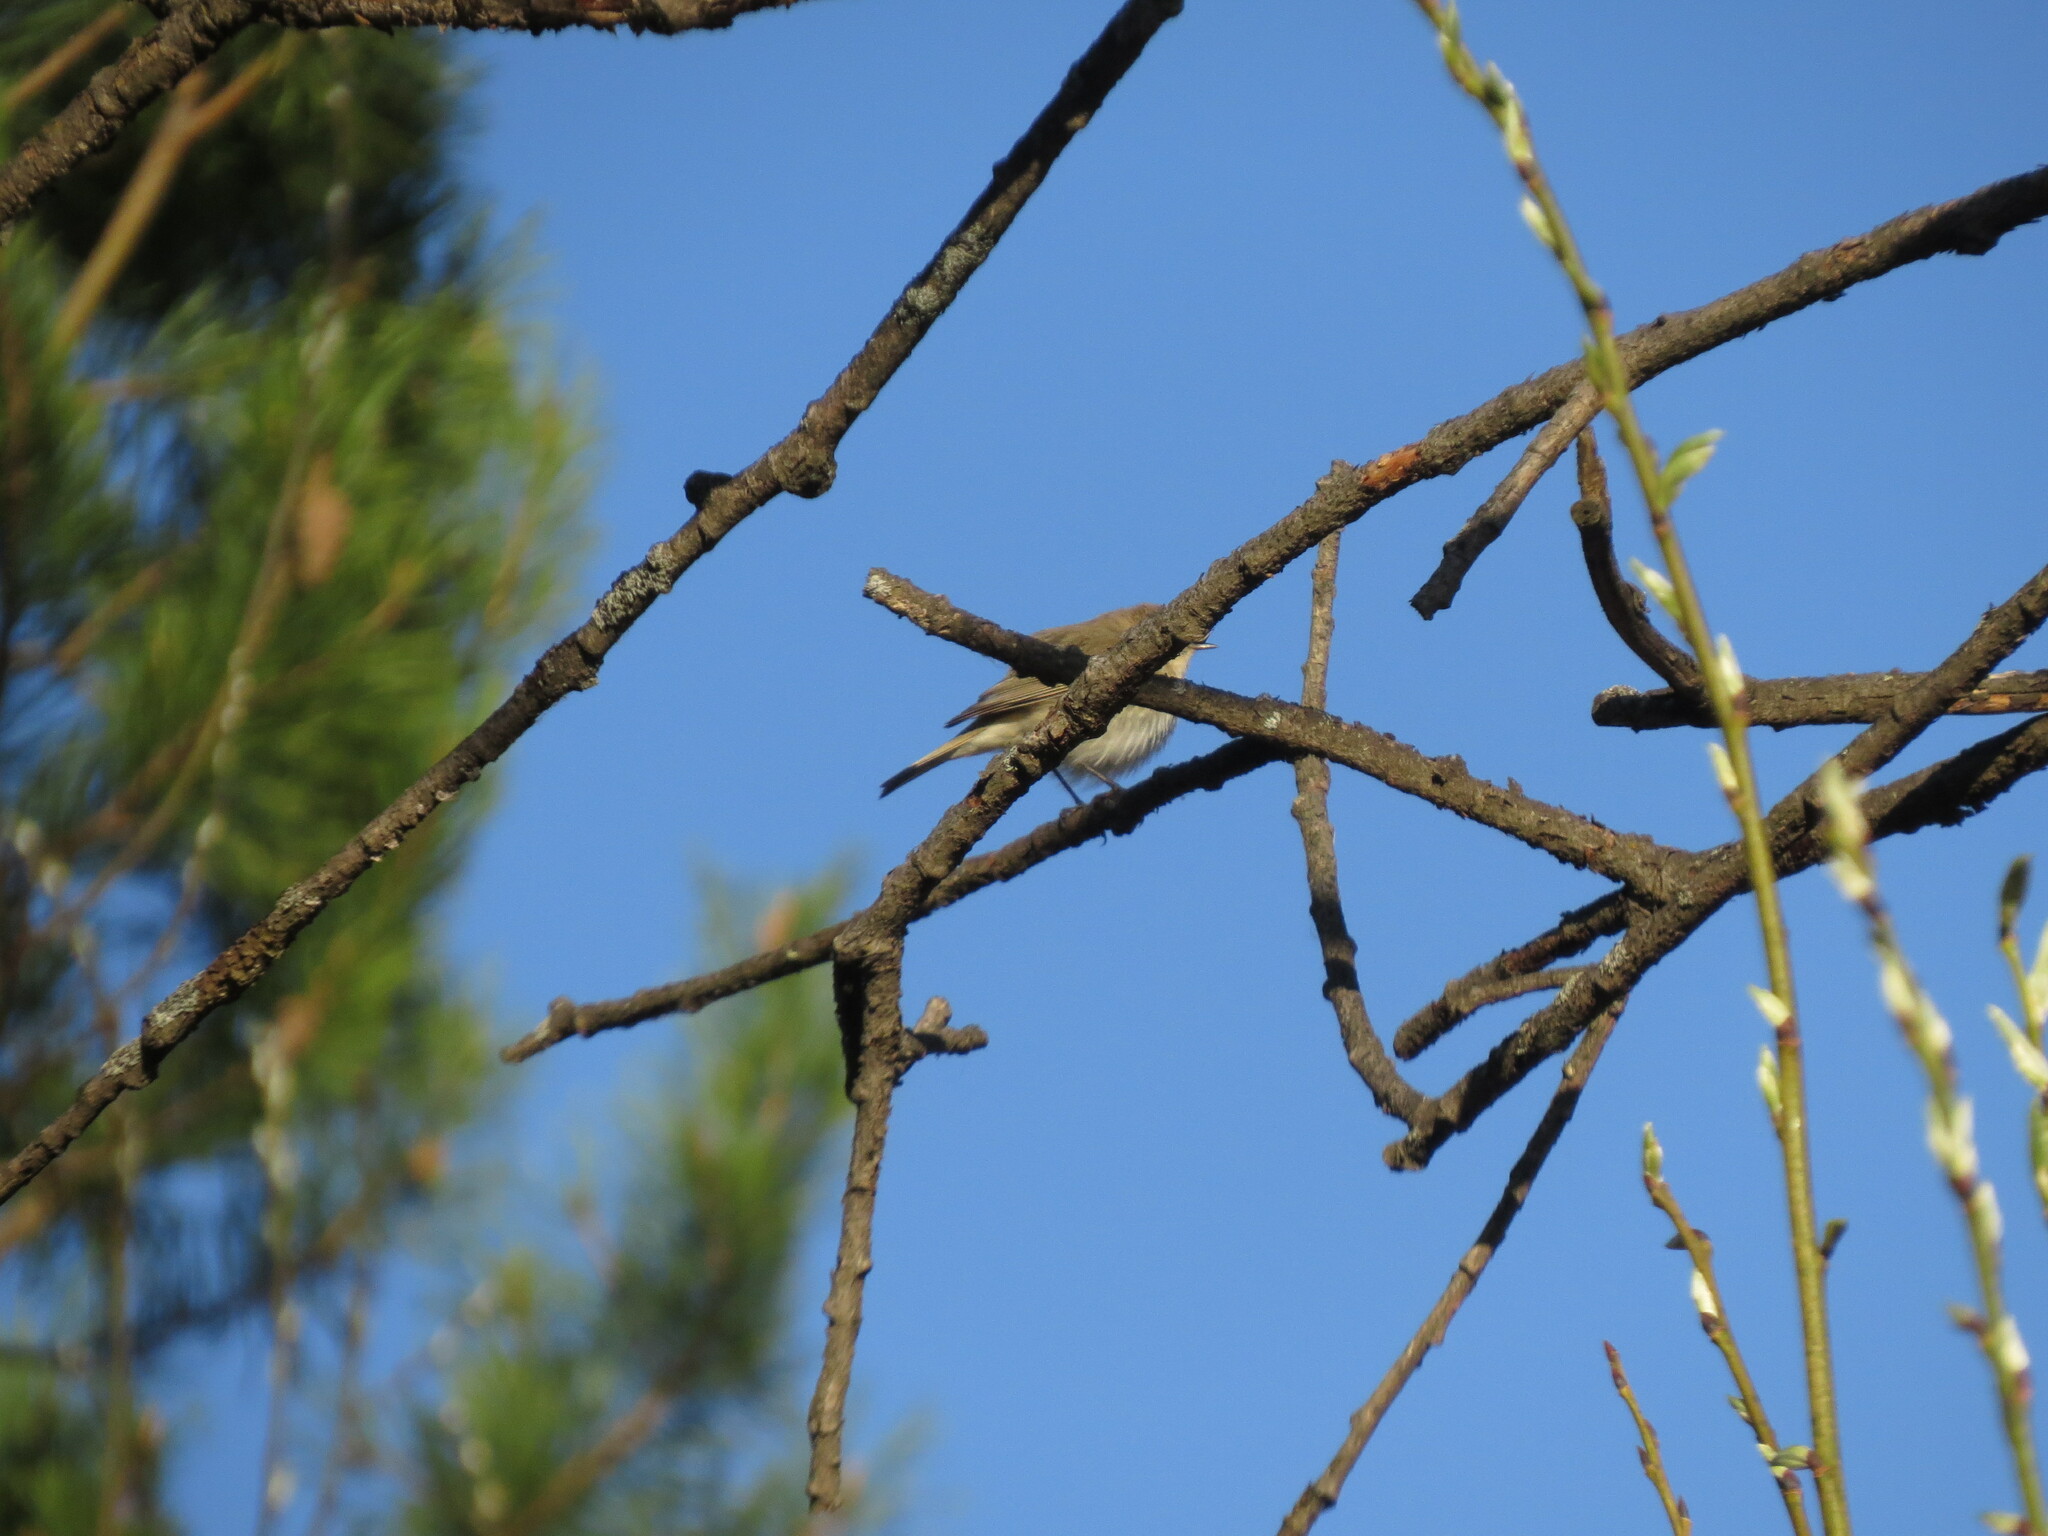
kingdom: Animalia
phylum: Chordata
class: Aves
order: Passeriformes
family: Phylloscopidae
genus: Phylloscopus
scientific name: Phylloscopus collybita
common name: Common chiffchaff
